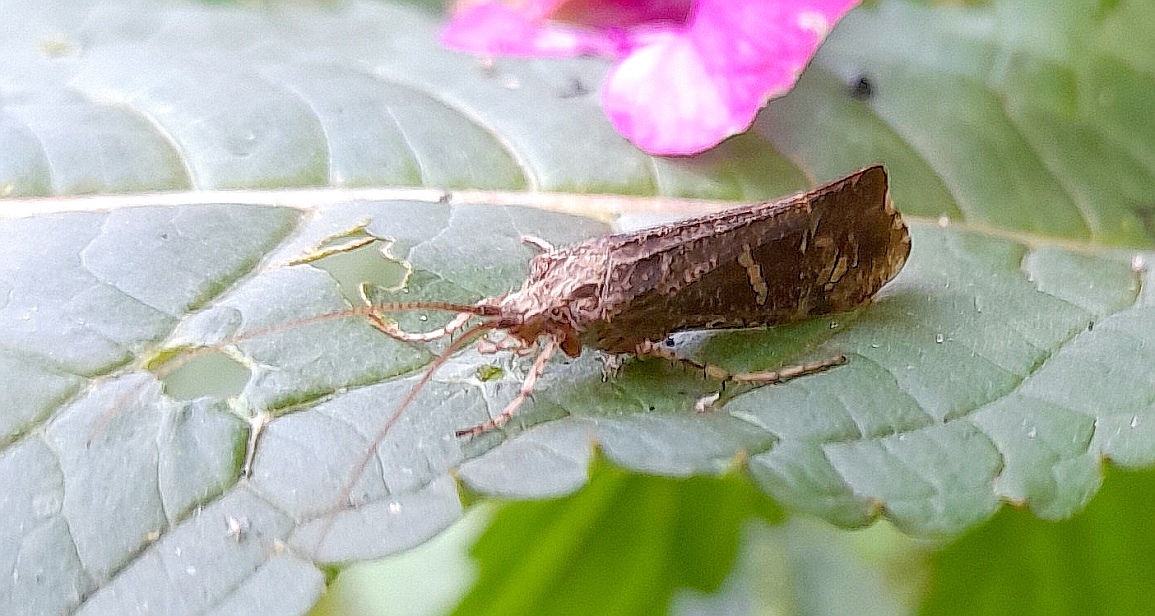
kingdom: Animalia
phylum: Arthropoda
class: Insecta
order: Trichoptera
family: Limnephilidae
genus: Glyphotaelius
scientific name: Glyphotaelius pellucidus
